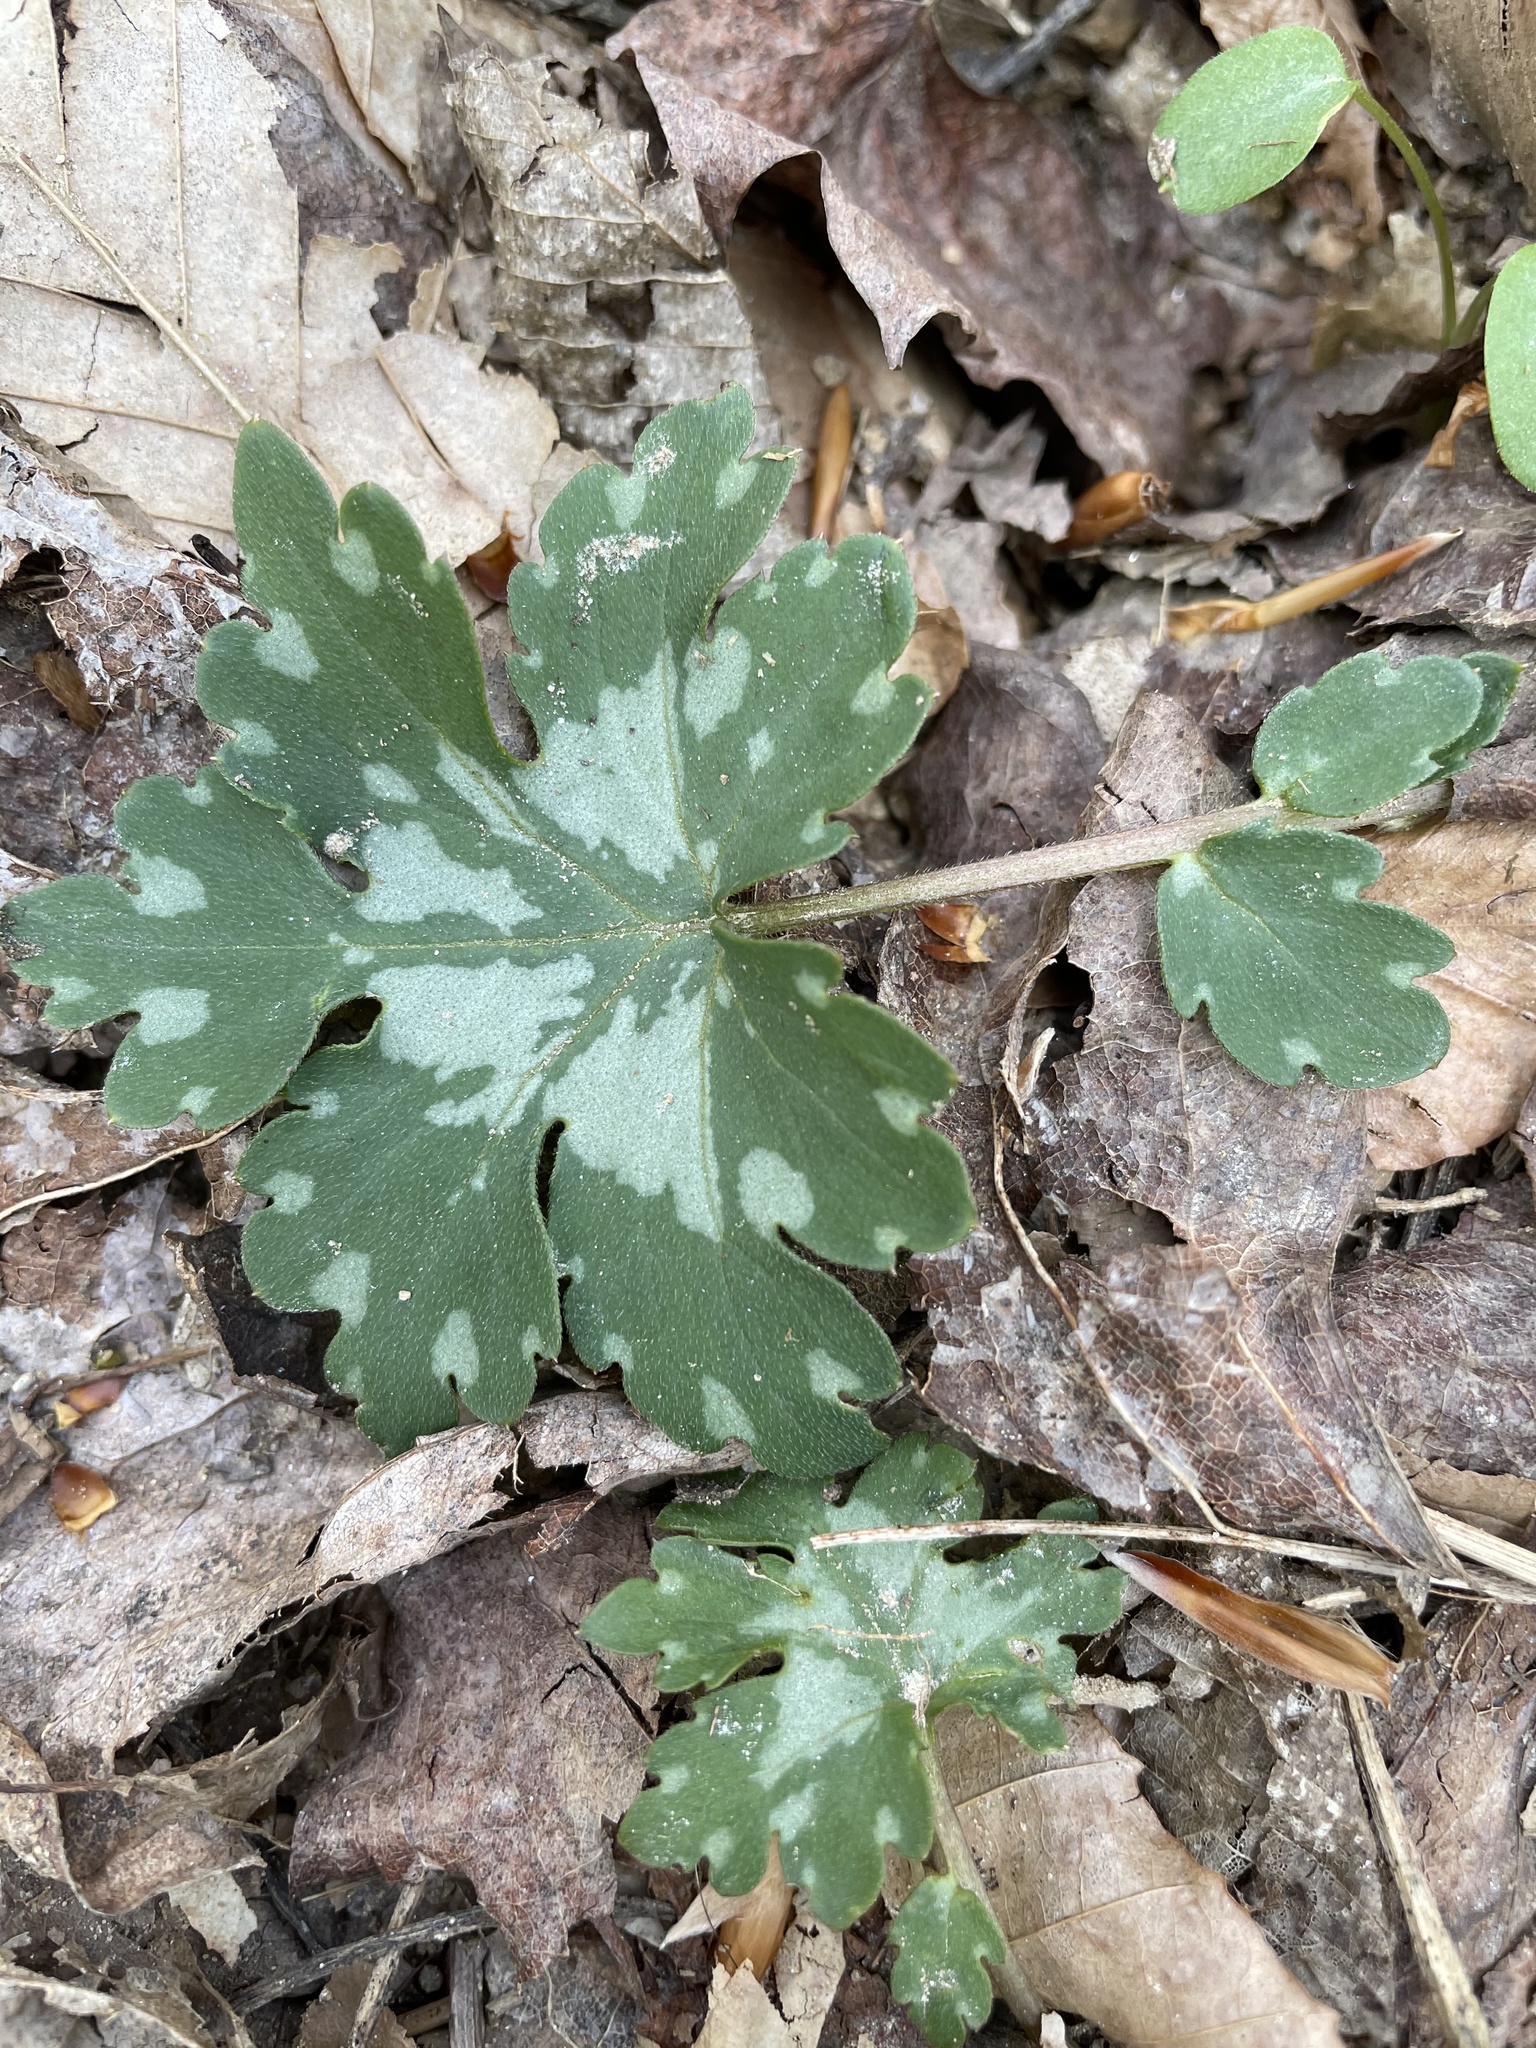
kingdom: Plantae
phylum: Tracheophyta
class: Magnoliopsida
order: Boraginales
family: Hydrophyllaceae
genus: Hydrophyllum
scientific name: Hydrophyllum canadense
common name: Canada waterleaf
